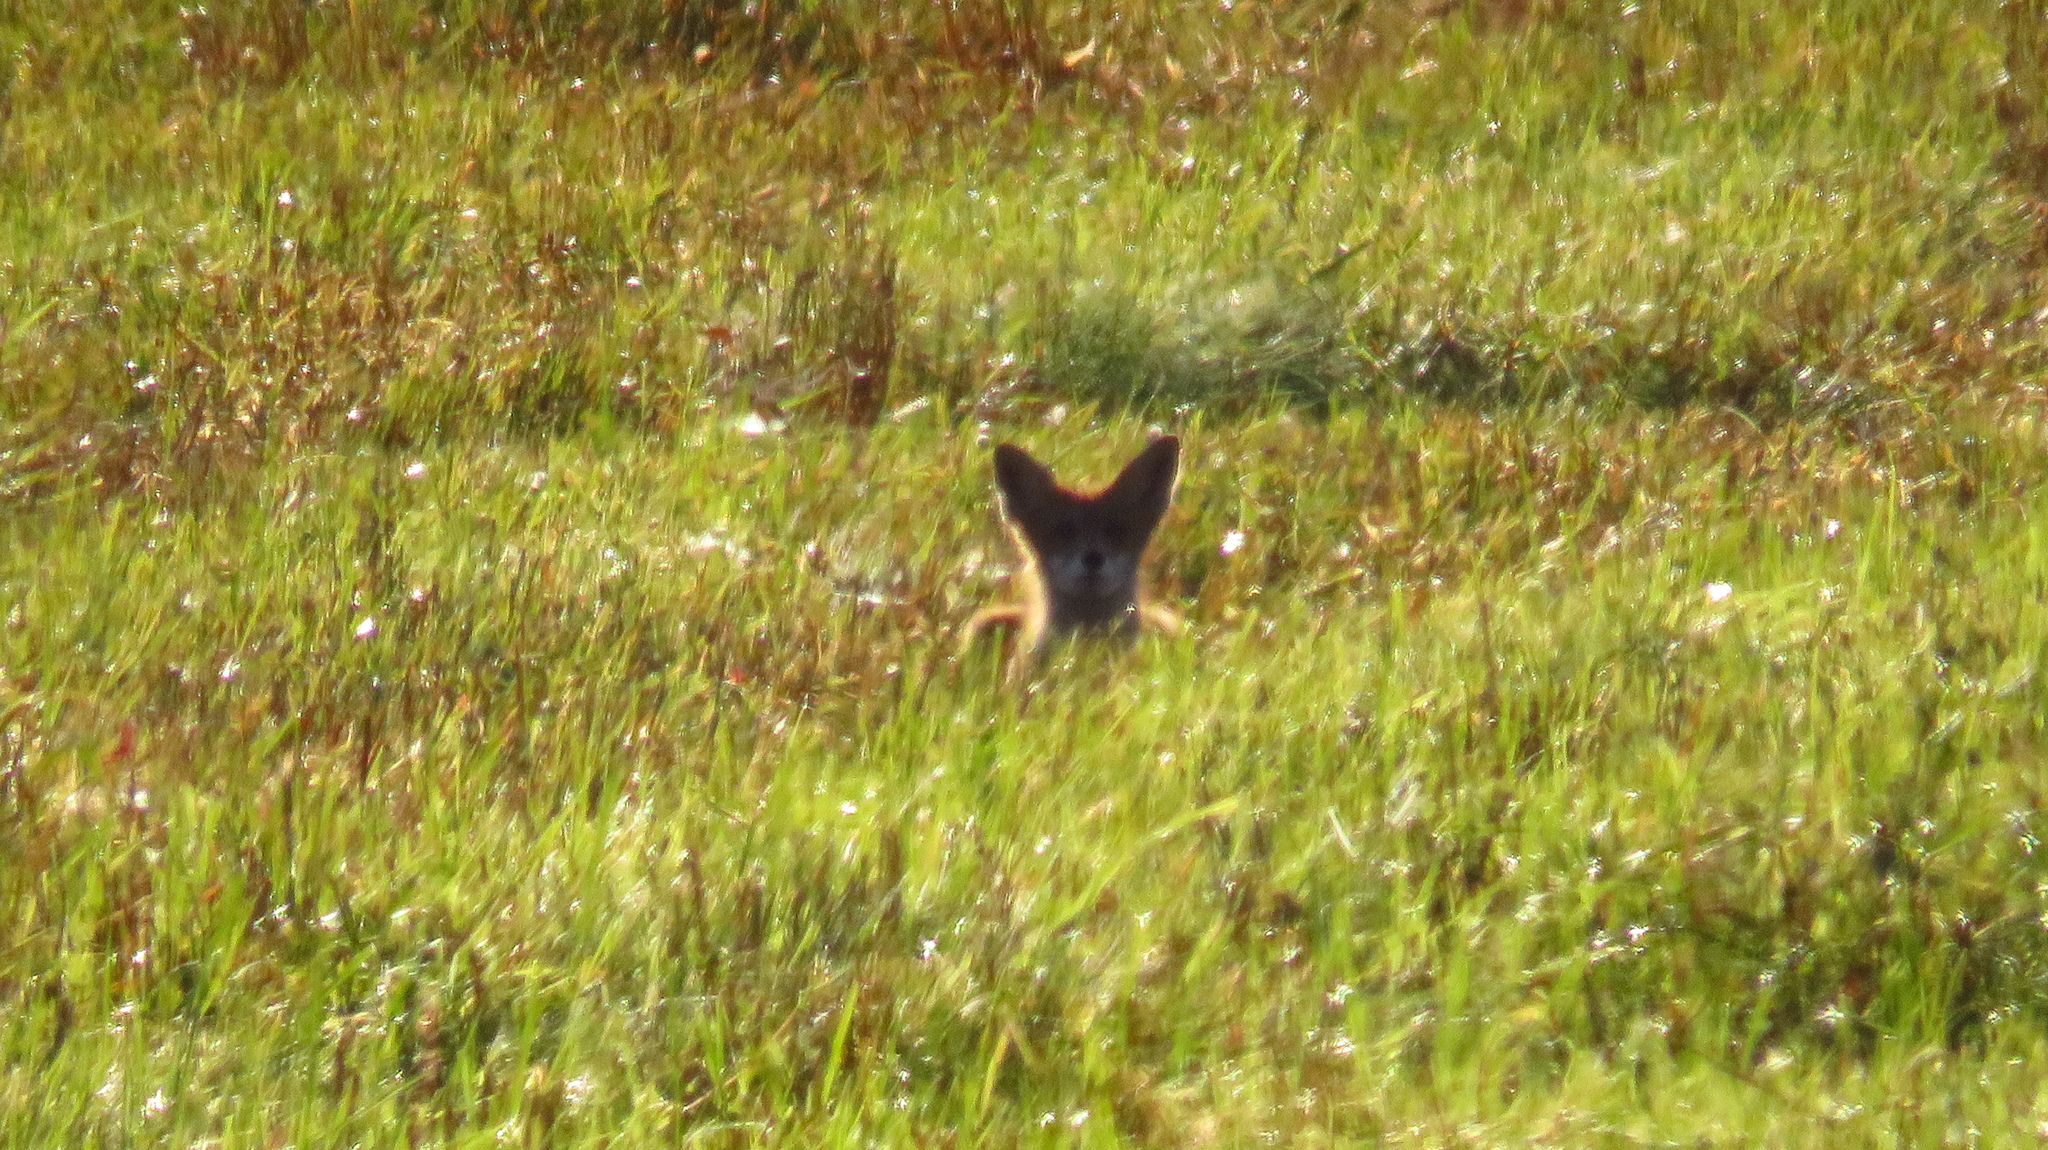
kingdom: Animalia
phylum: Chordata
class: Mammalia
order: Carnivora
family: Canidae
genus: Vulpes
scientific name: Vulpes vulpes
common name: Red fox
